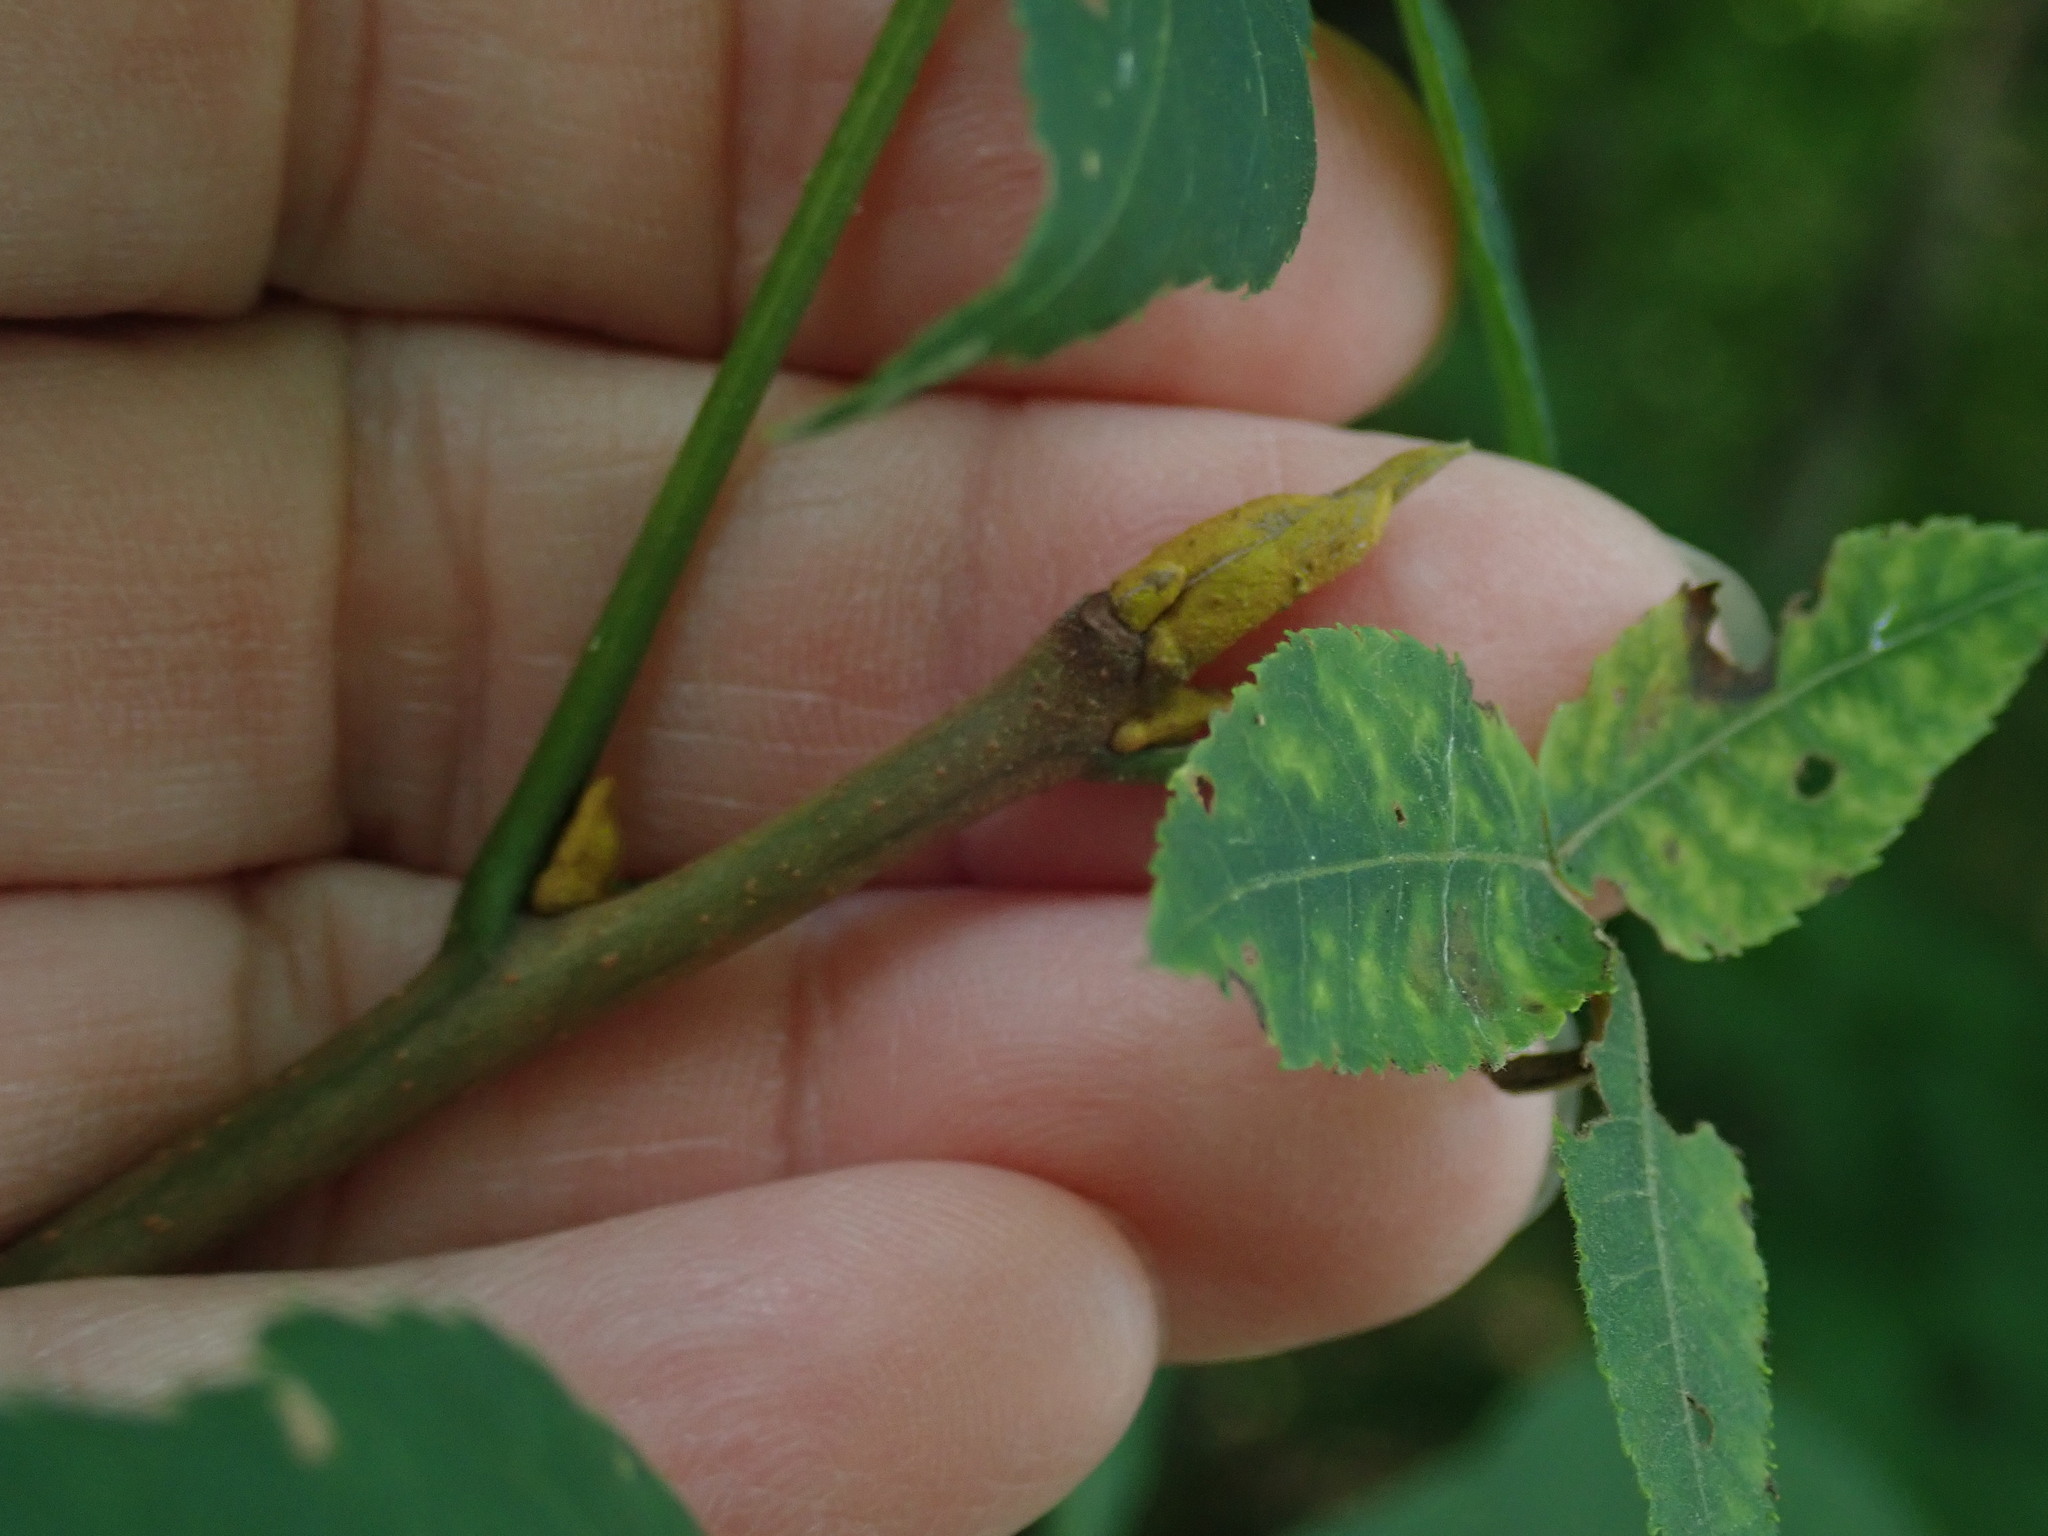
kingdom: Plantae
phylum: Tracheophyta
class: Magnoliopsida
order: Fagales
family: Juglandaceae
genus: Carya
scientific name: Carya cordiformis
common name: Bitternut hickory
